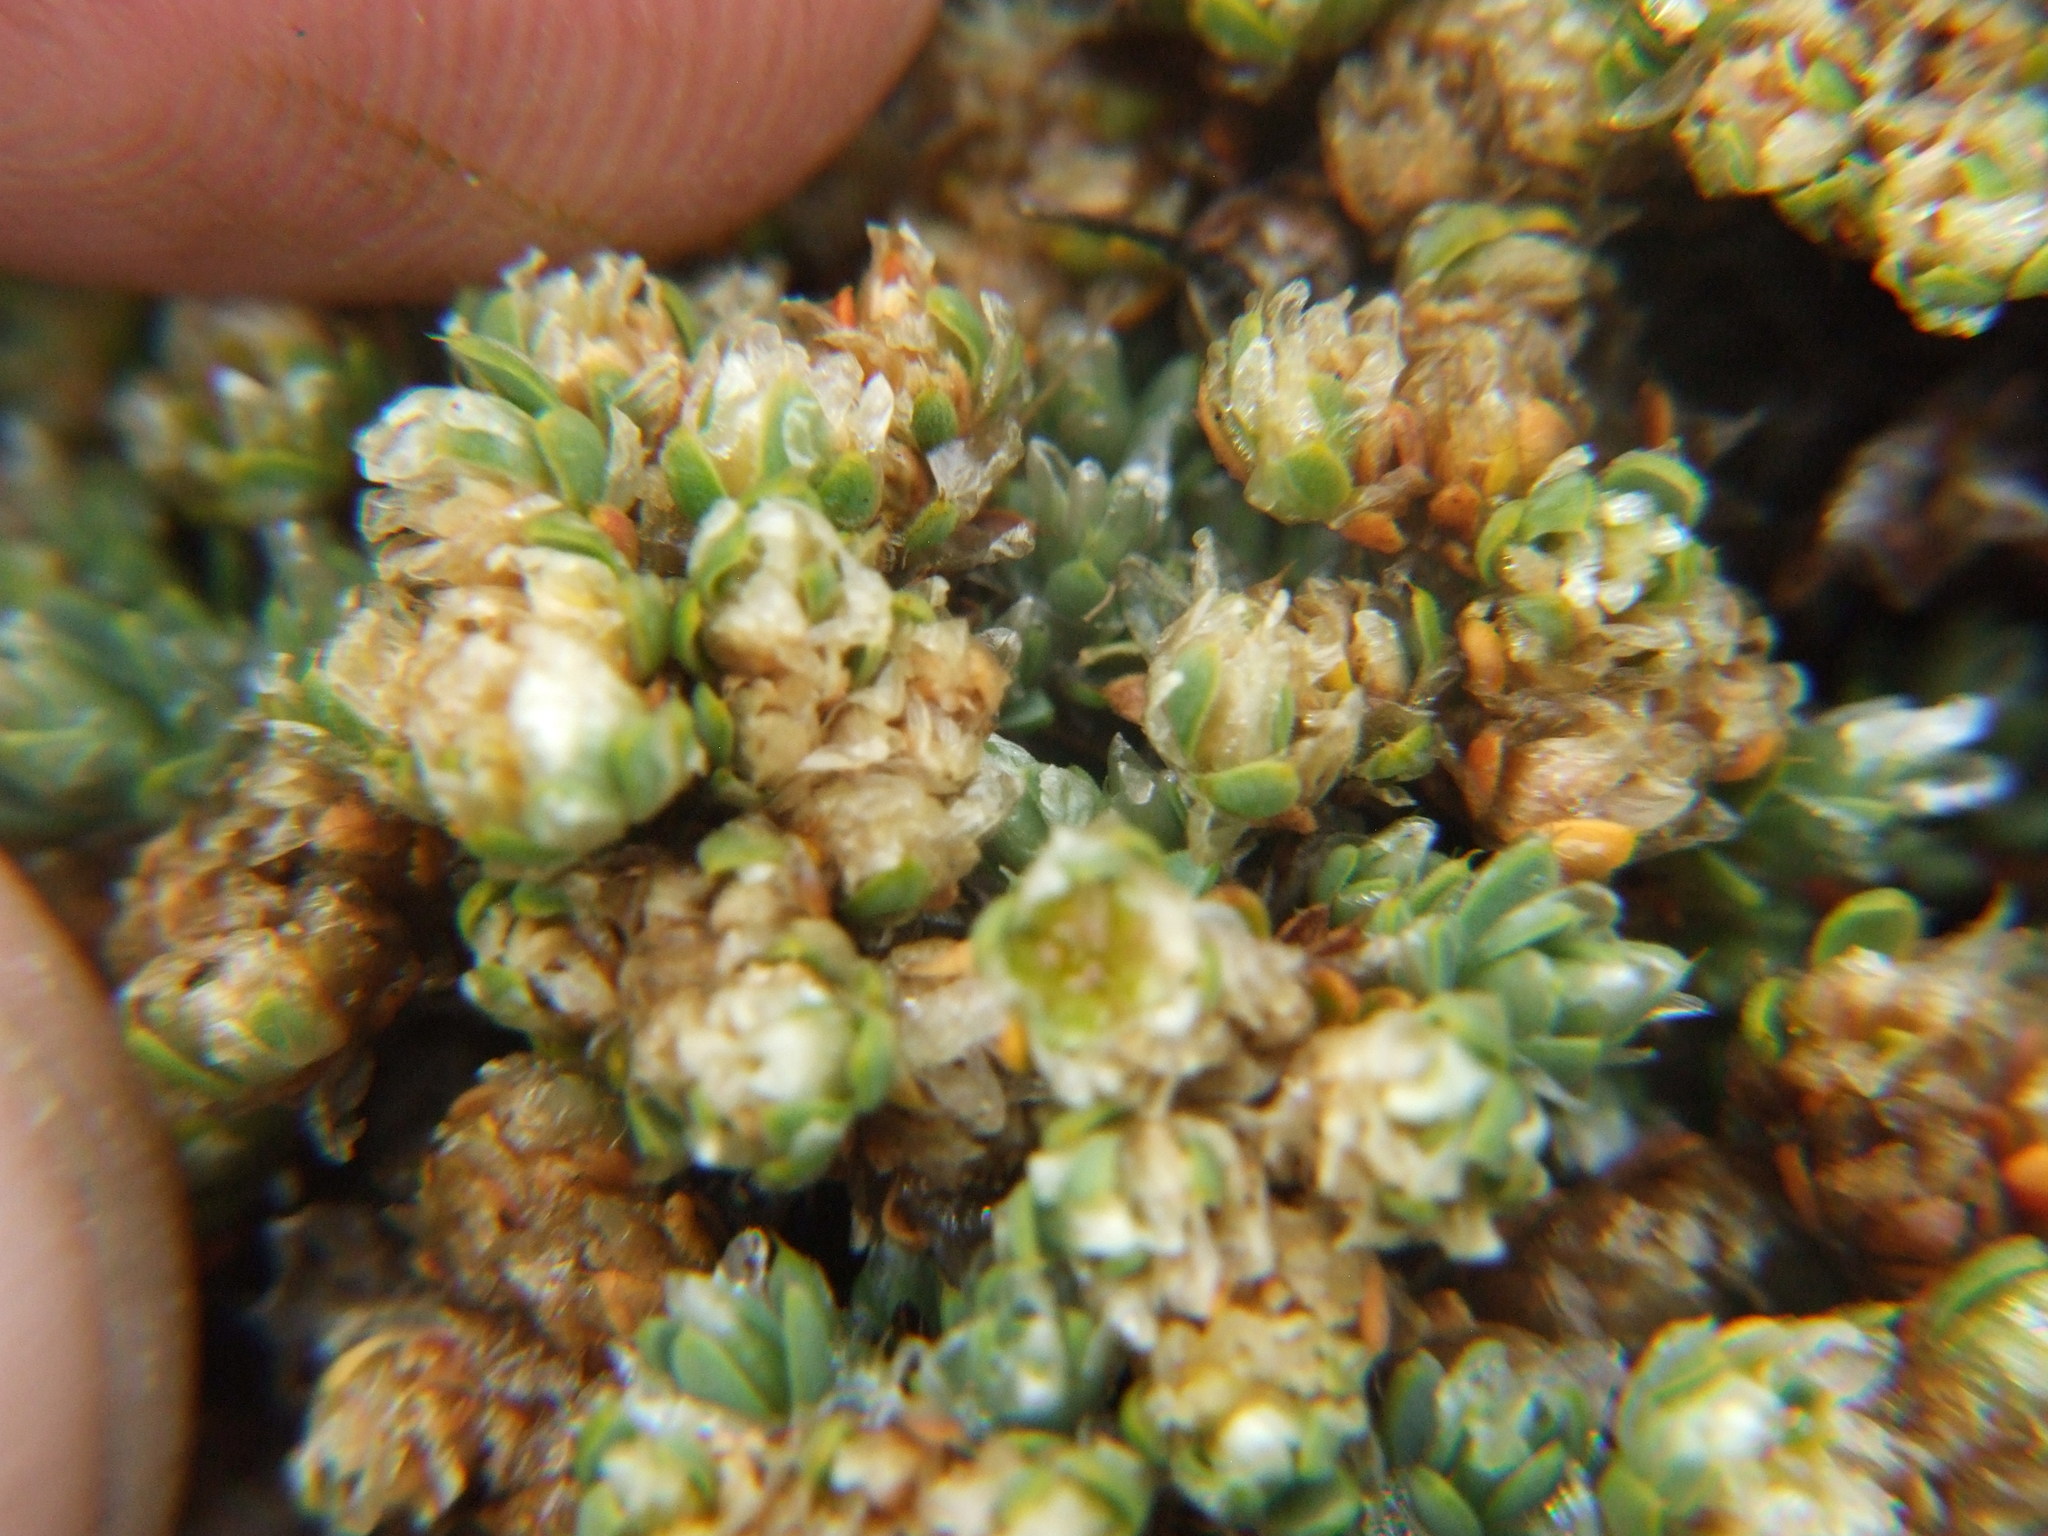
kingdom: Plantae
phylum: Tracheophyta
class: Magnoliopsida
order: Caryophyllales
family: Caryophyllaceae
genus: Paronychia
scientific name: Paronychia andina
